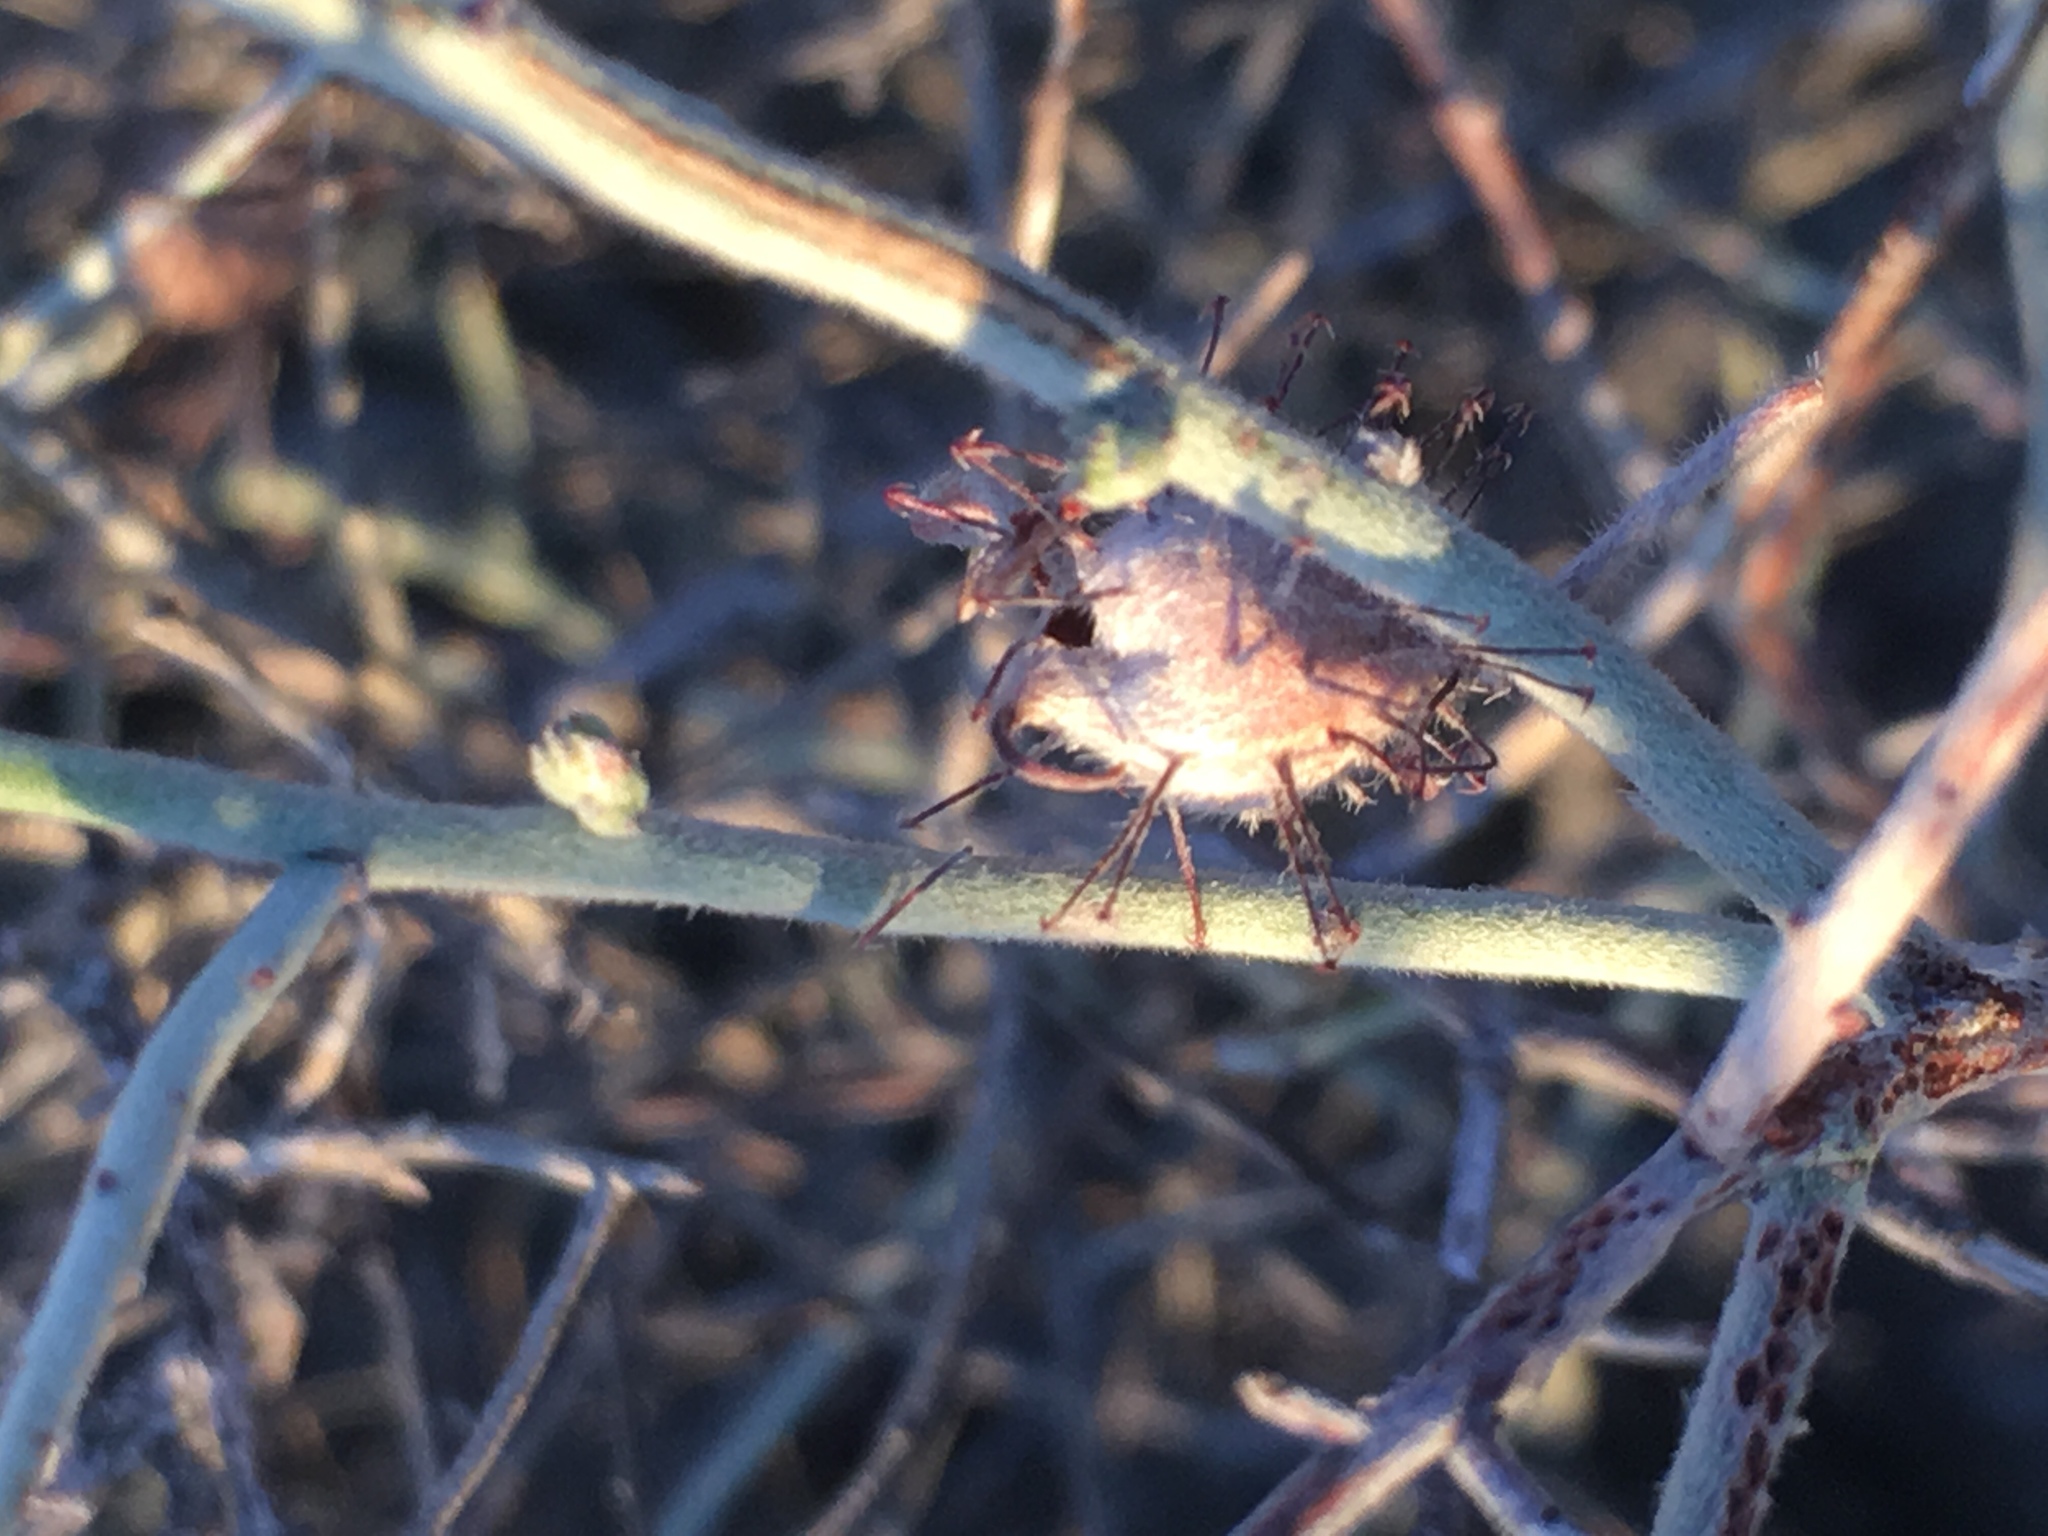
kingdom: Plantae
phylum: Tracheophyta
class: Magnoliopsida
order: Zygophyllales
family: Krameriaceae
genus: Krameria
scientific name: Krameria bicolor
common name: White ratany
